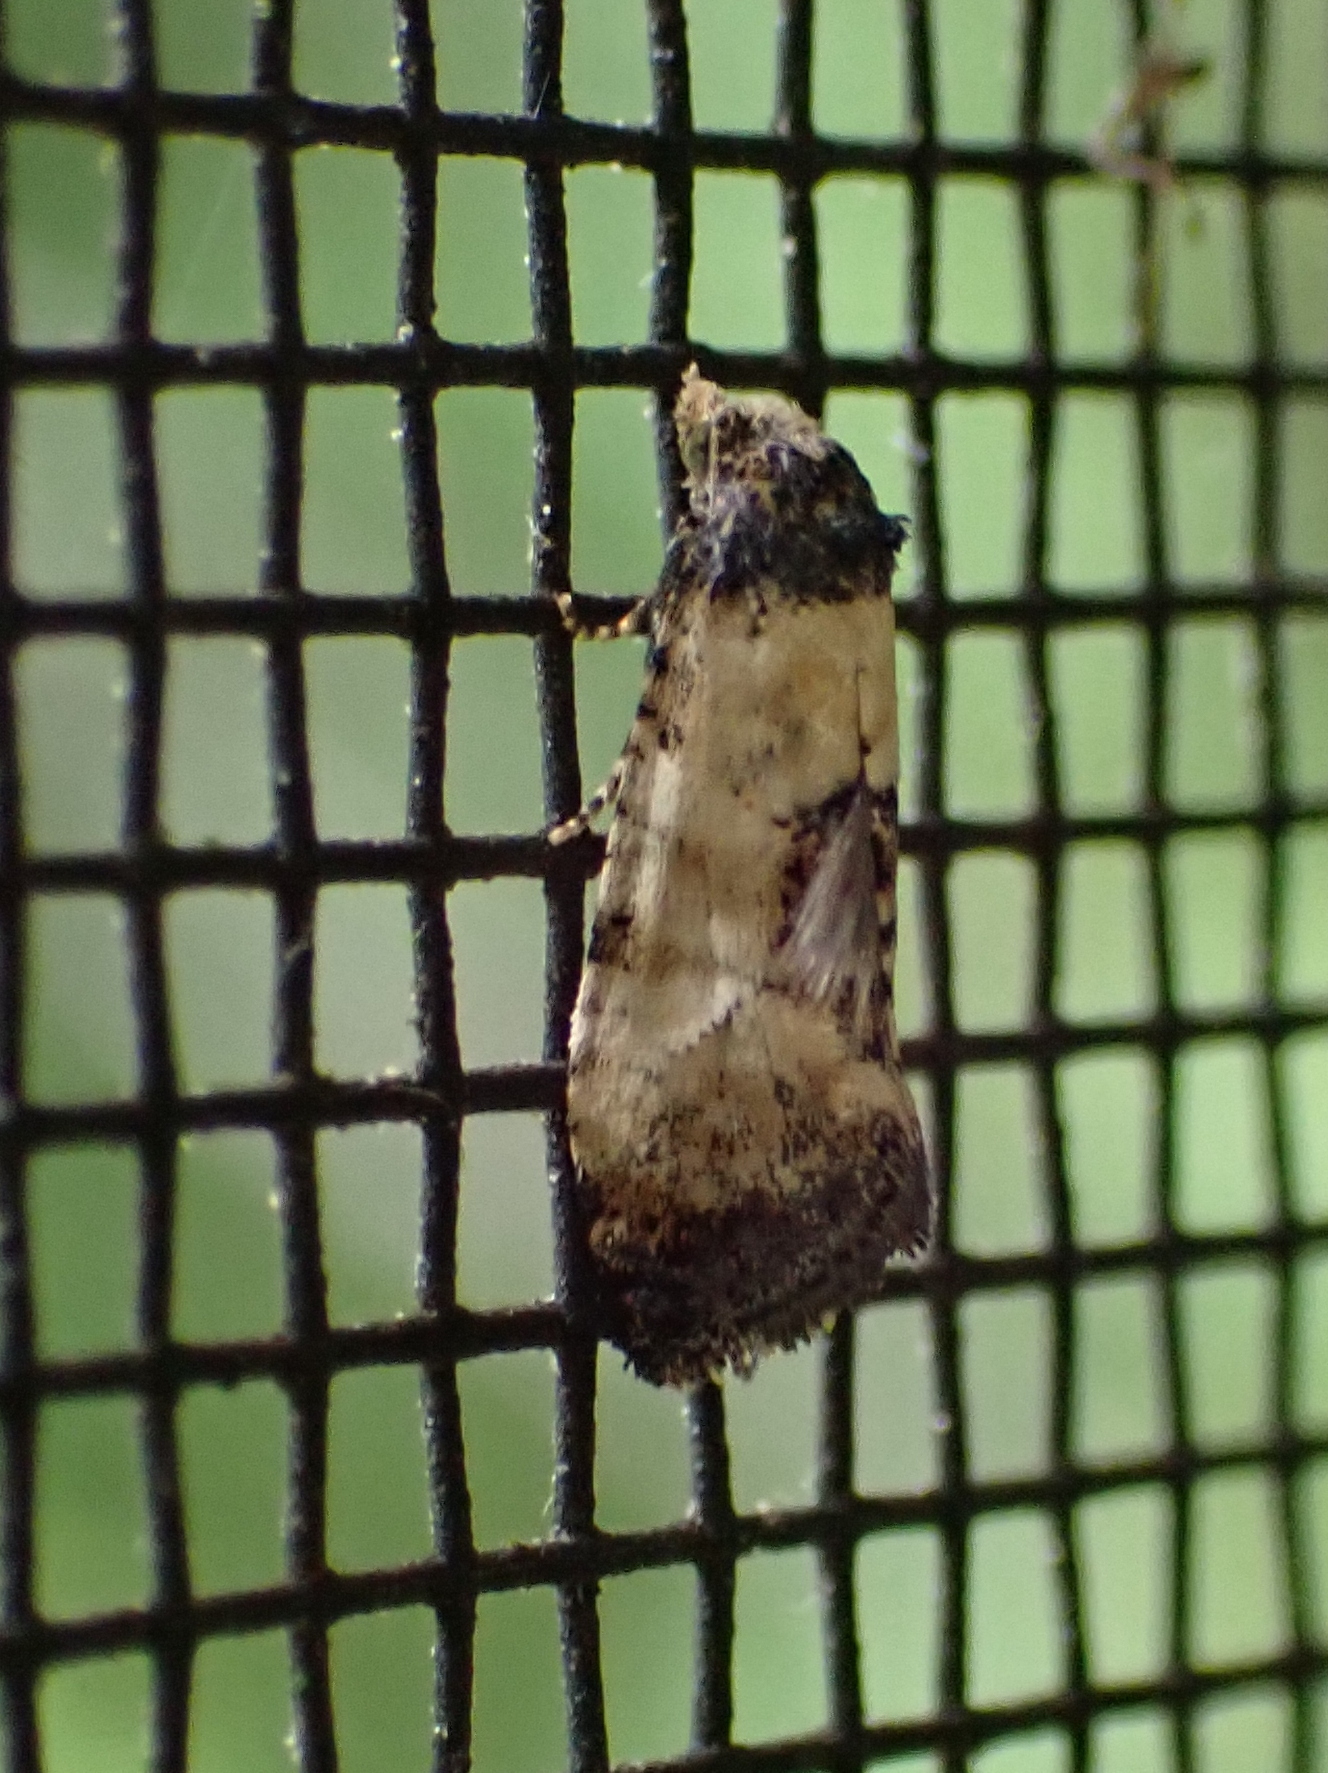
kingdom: Animalia
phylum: Arthropoda
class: Insecta
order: Lepidoptera
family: Tortricidae
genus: Cochylis
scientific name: Cochylis dubitana
